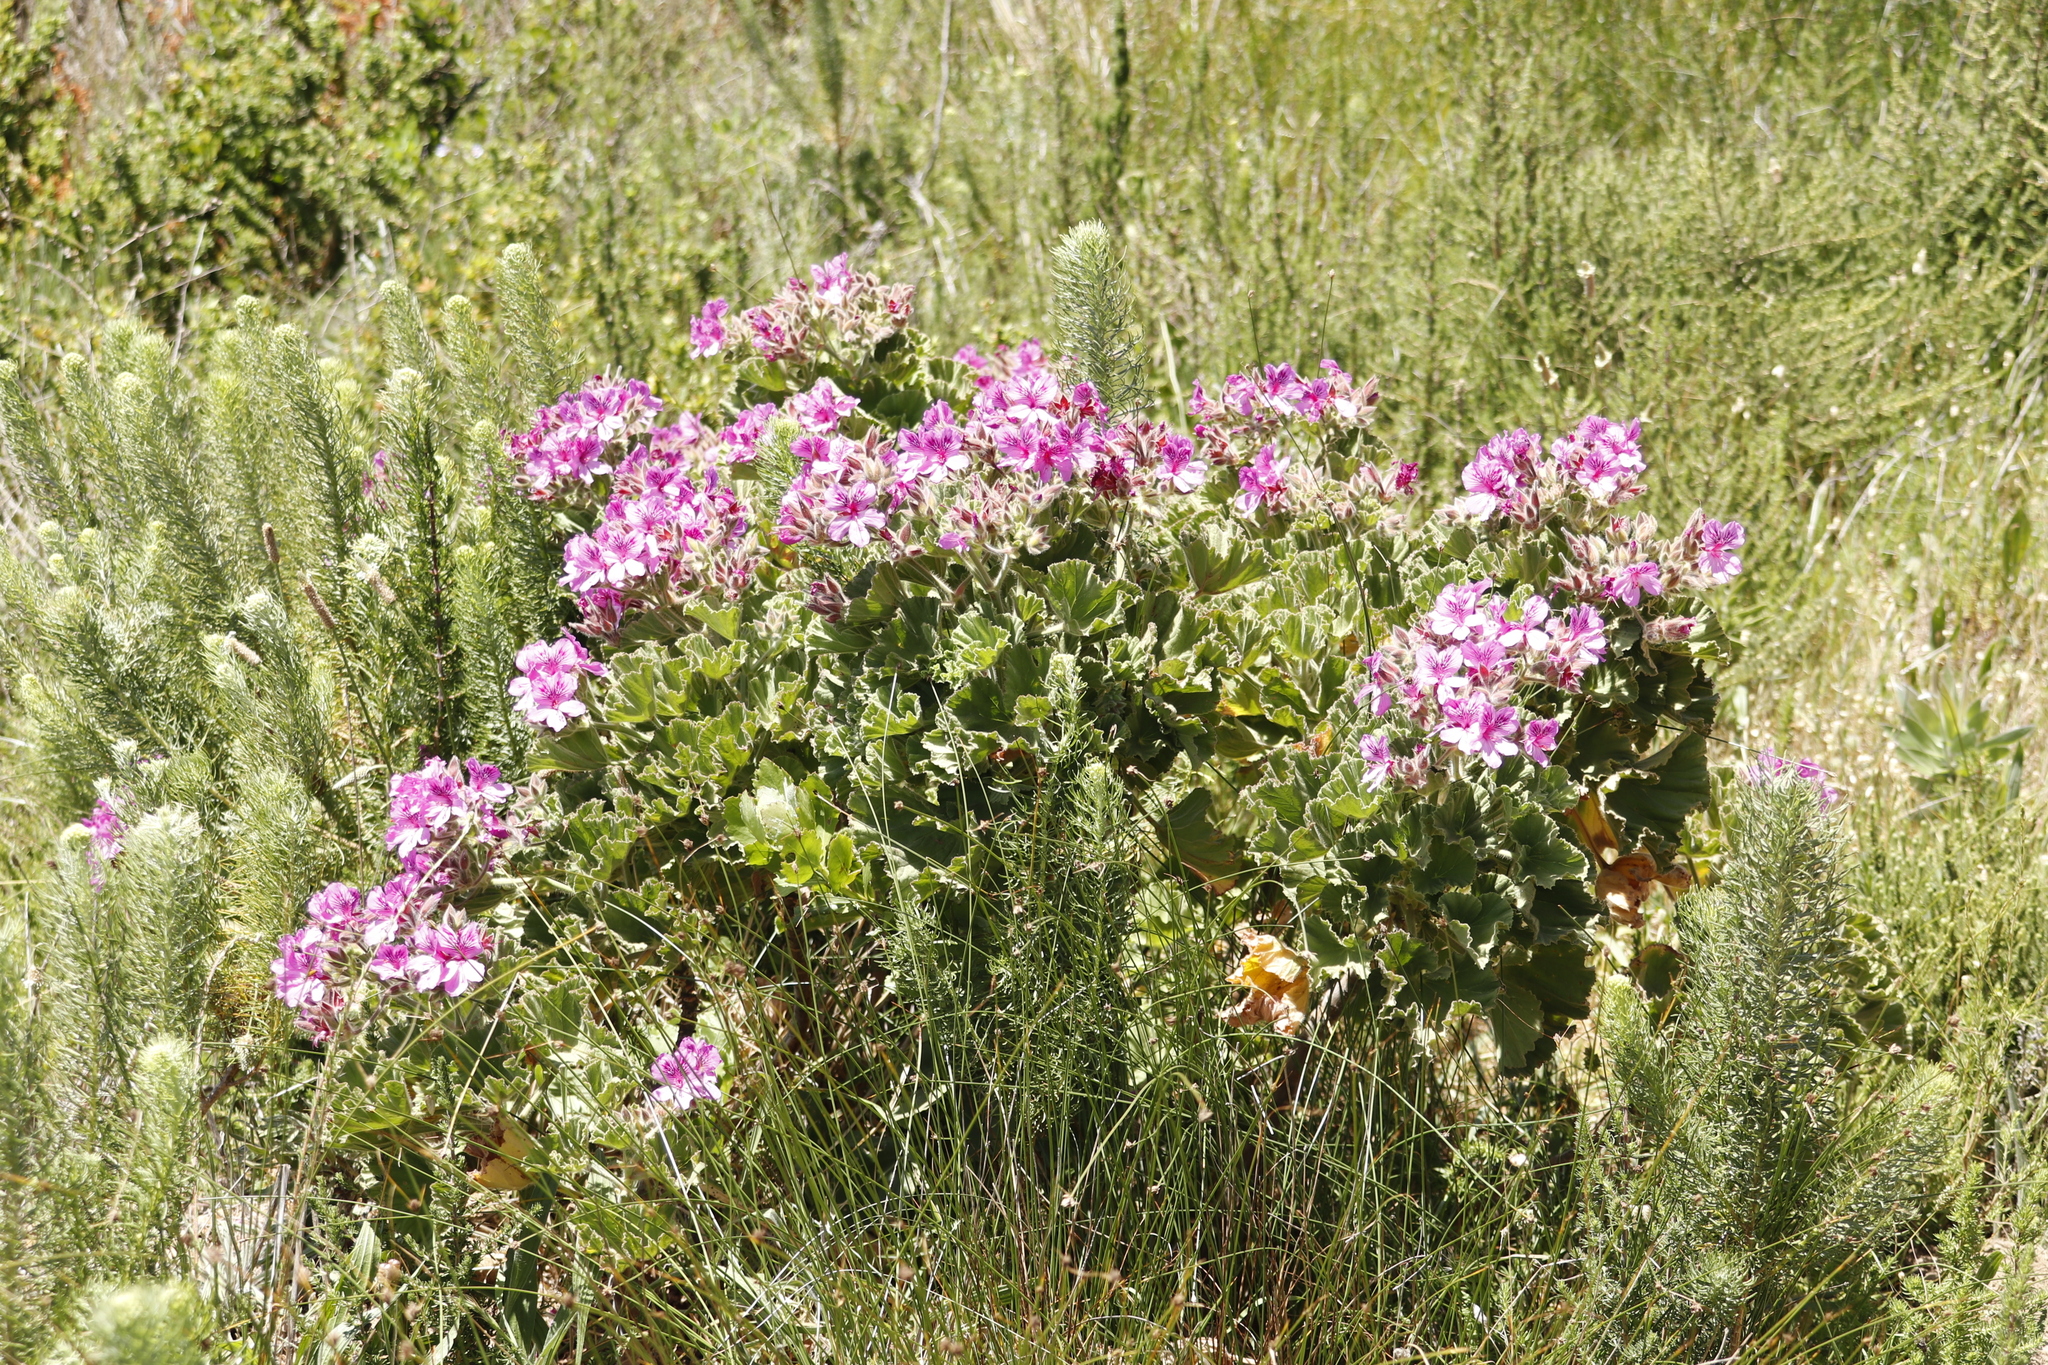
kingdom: Plantae
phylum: Tracheophyta
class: Magnoliopsida
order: Geraniales
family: Geraniaceae
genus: Pelargonium
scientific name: Pelargonium cucullatum
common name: Tree pelargonium
